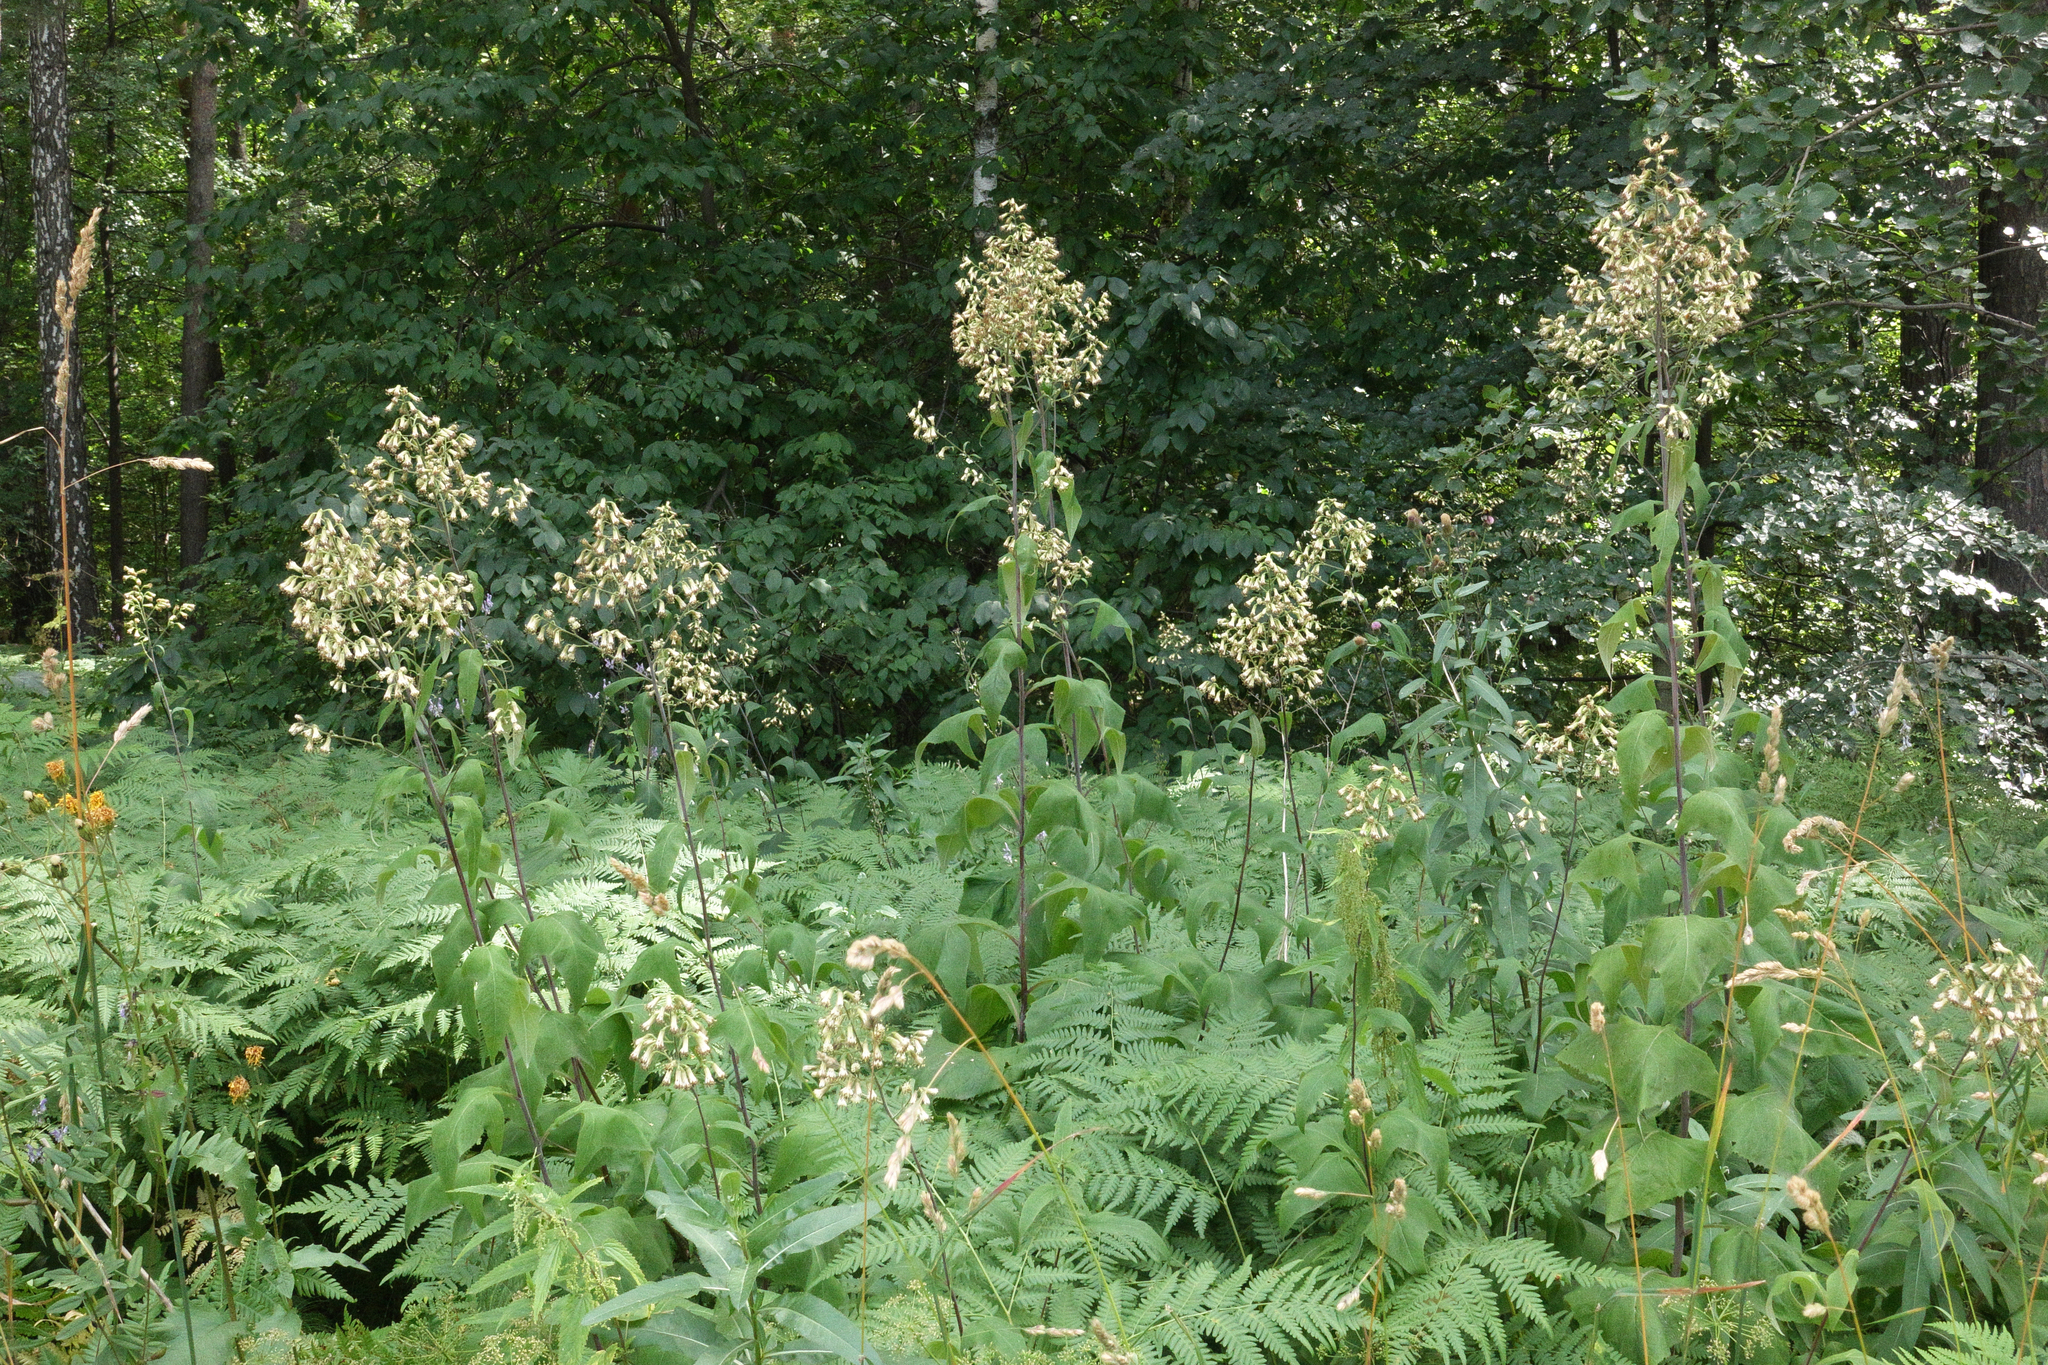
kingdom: Plantae
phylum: Tracheophyta
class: Magnoliopsida
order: Asterales
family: Asteraceae
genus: Parasenecio
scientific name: Parasenecio hastatus
